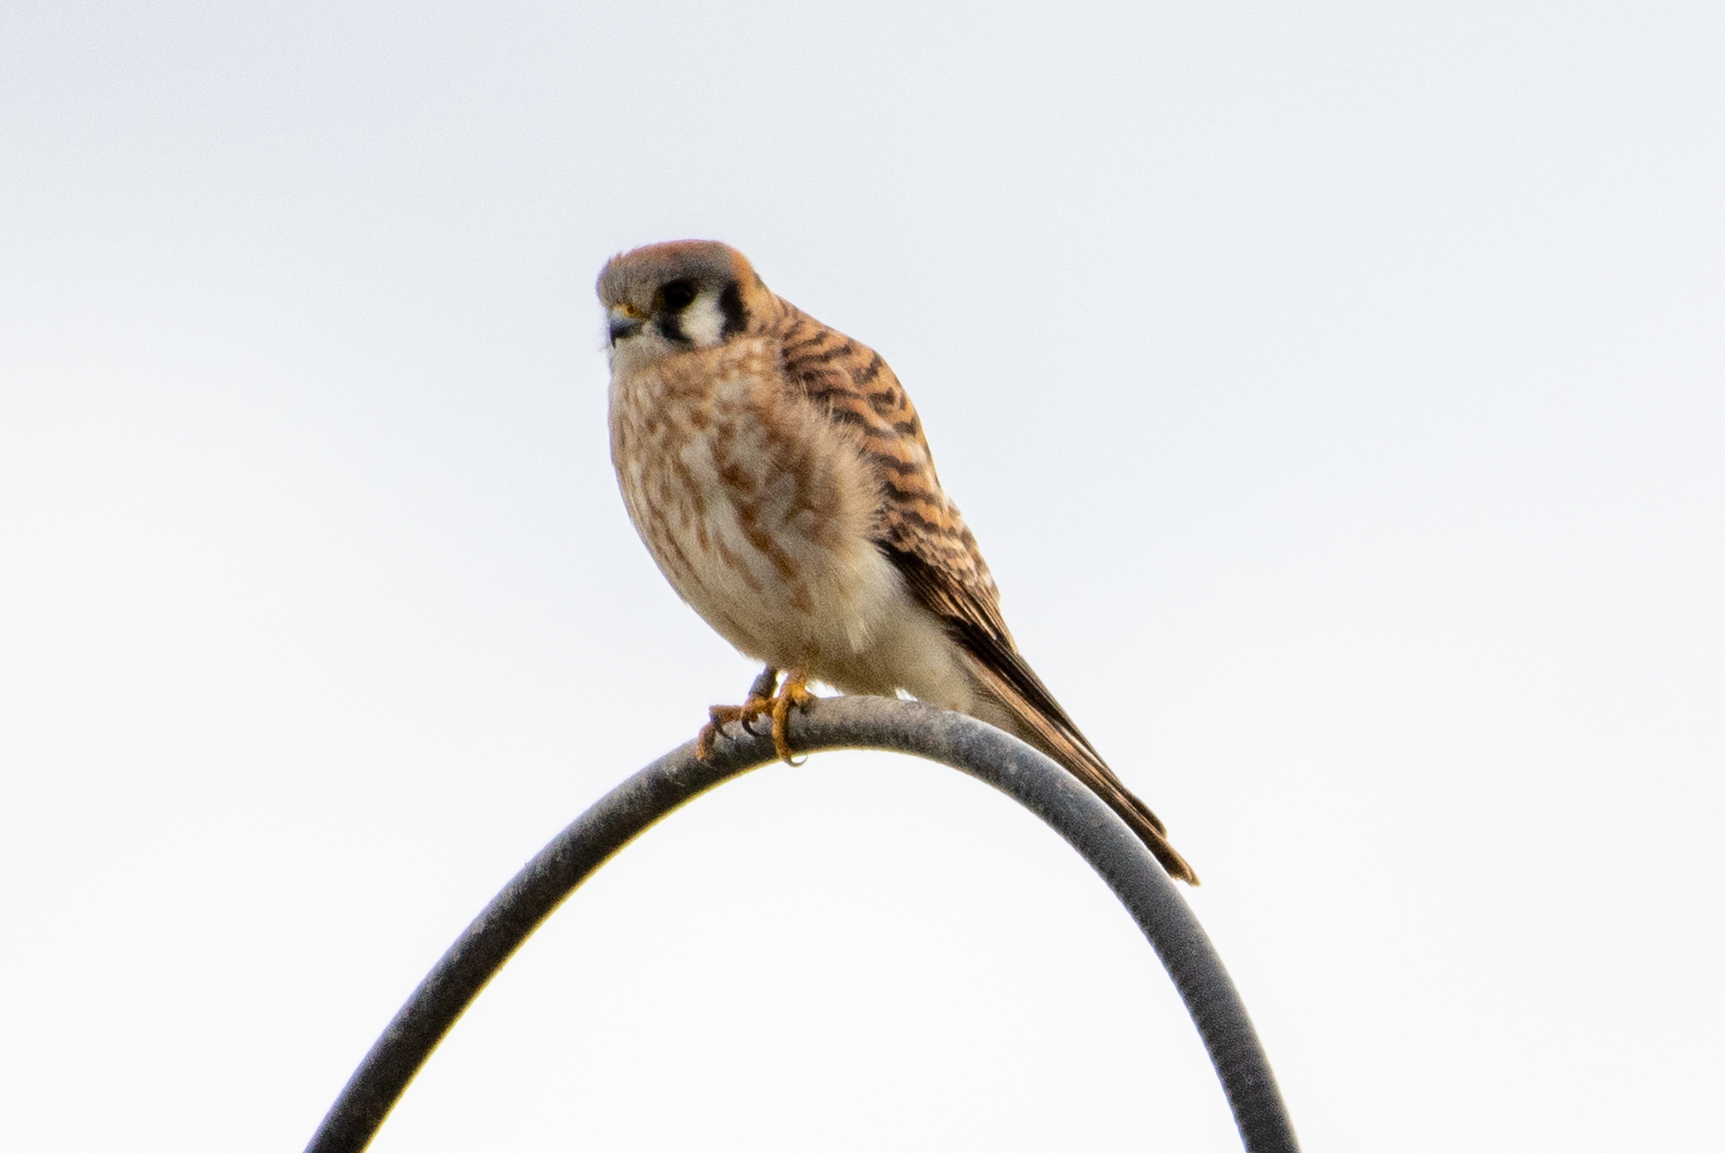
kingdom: Animalia
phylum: Chordata
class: Aves
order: Falconiformes
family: Falconidae
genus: Falco
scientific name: Falco sparverius
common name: American kestrel
